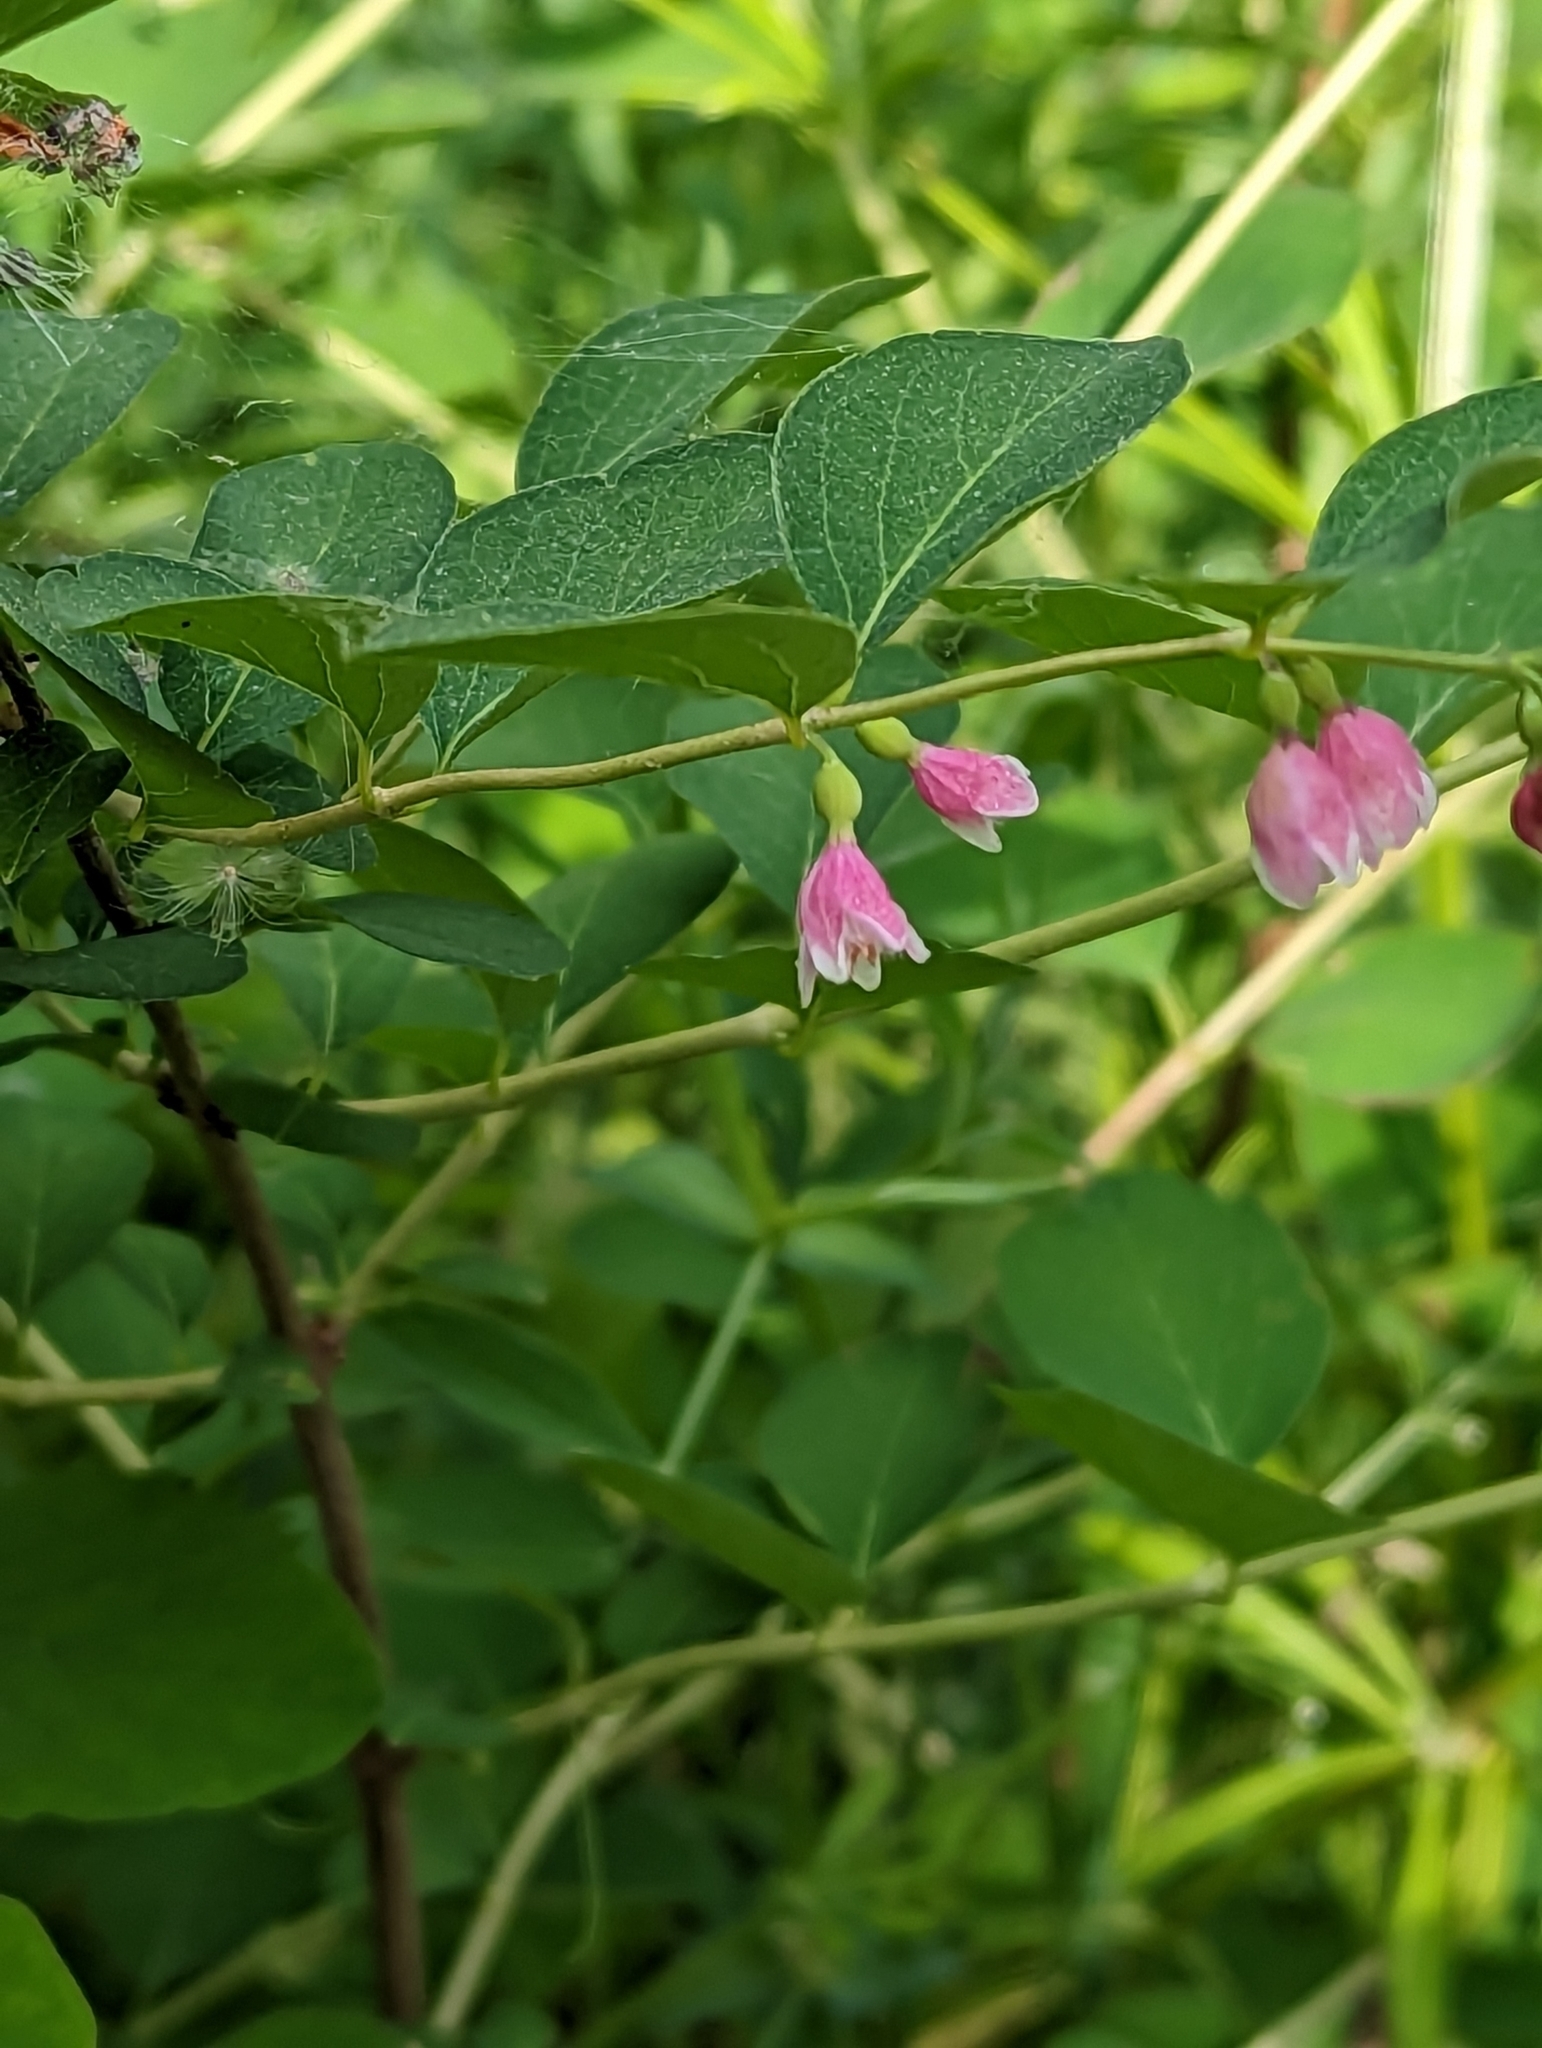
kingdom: Plantae
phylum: Tracheophyta
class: Magnoliopsida
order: Dipsacales
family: Caprifoliaceae
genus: Symphoricarpos
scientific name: Symphoricarpos albus
